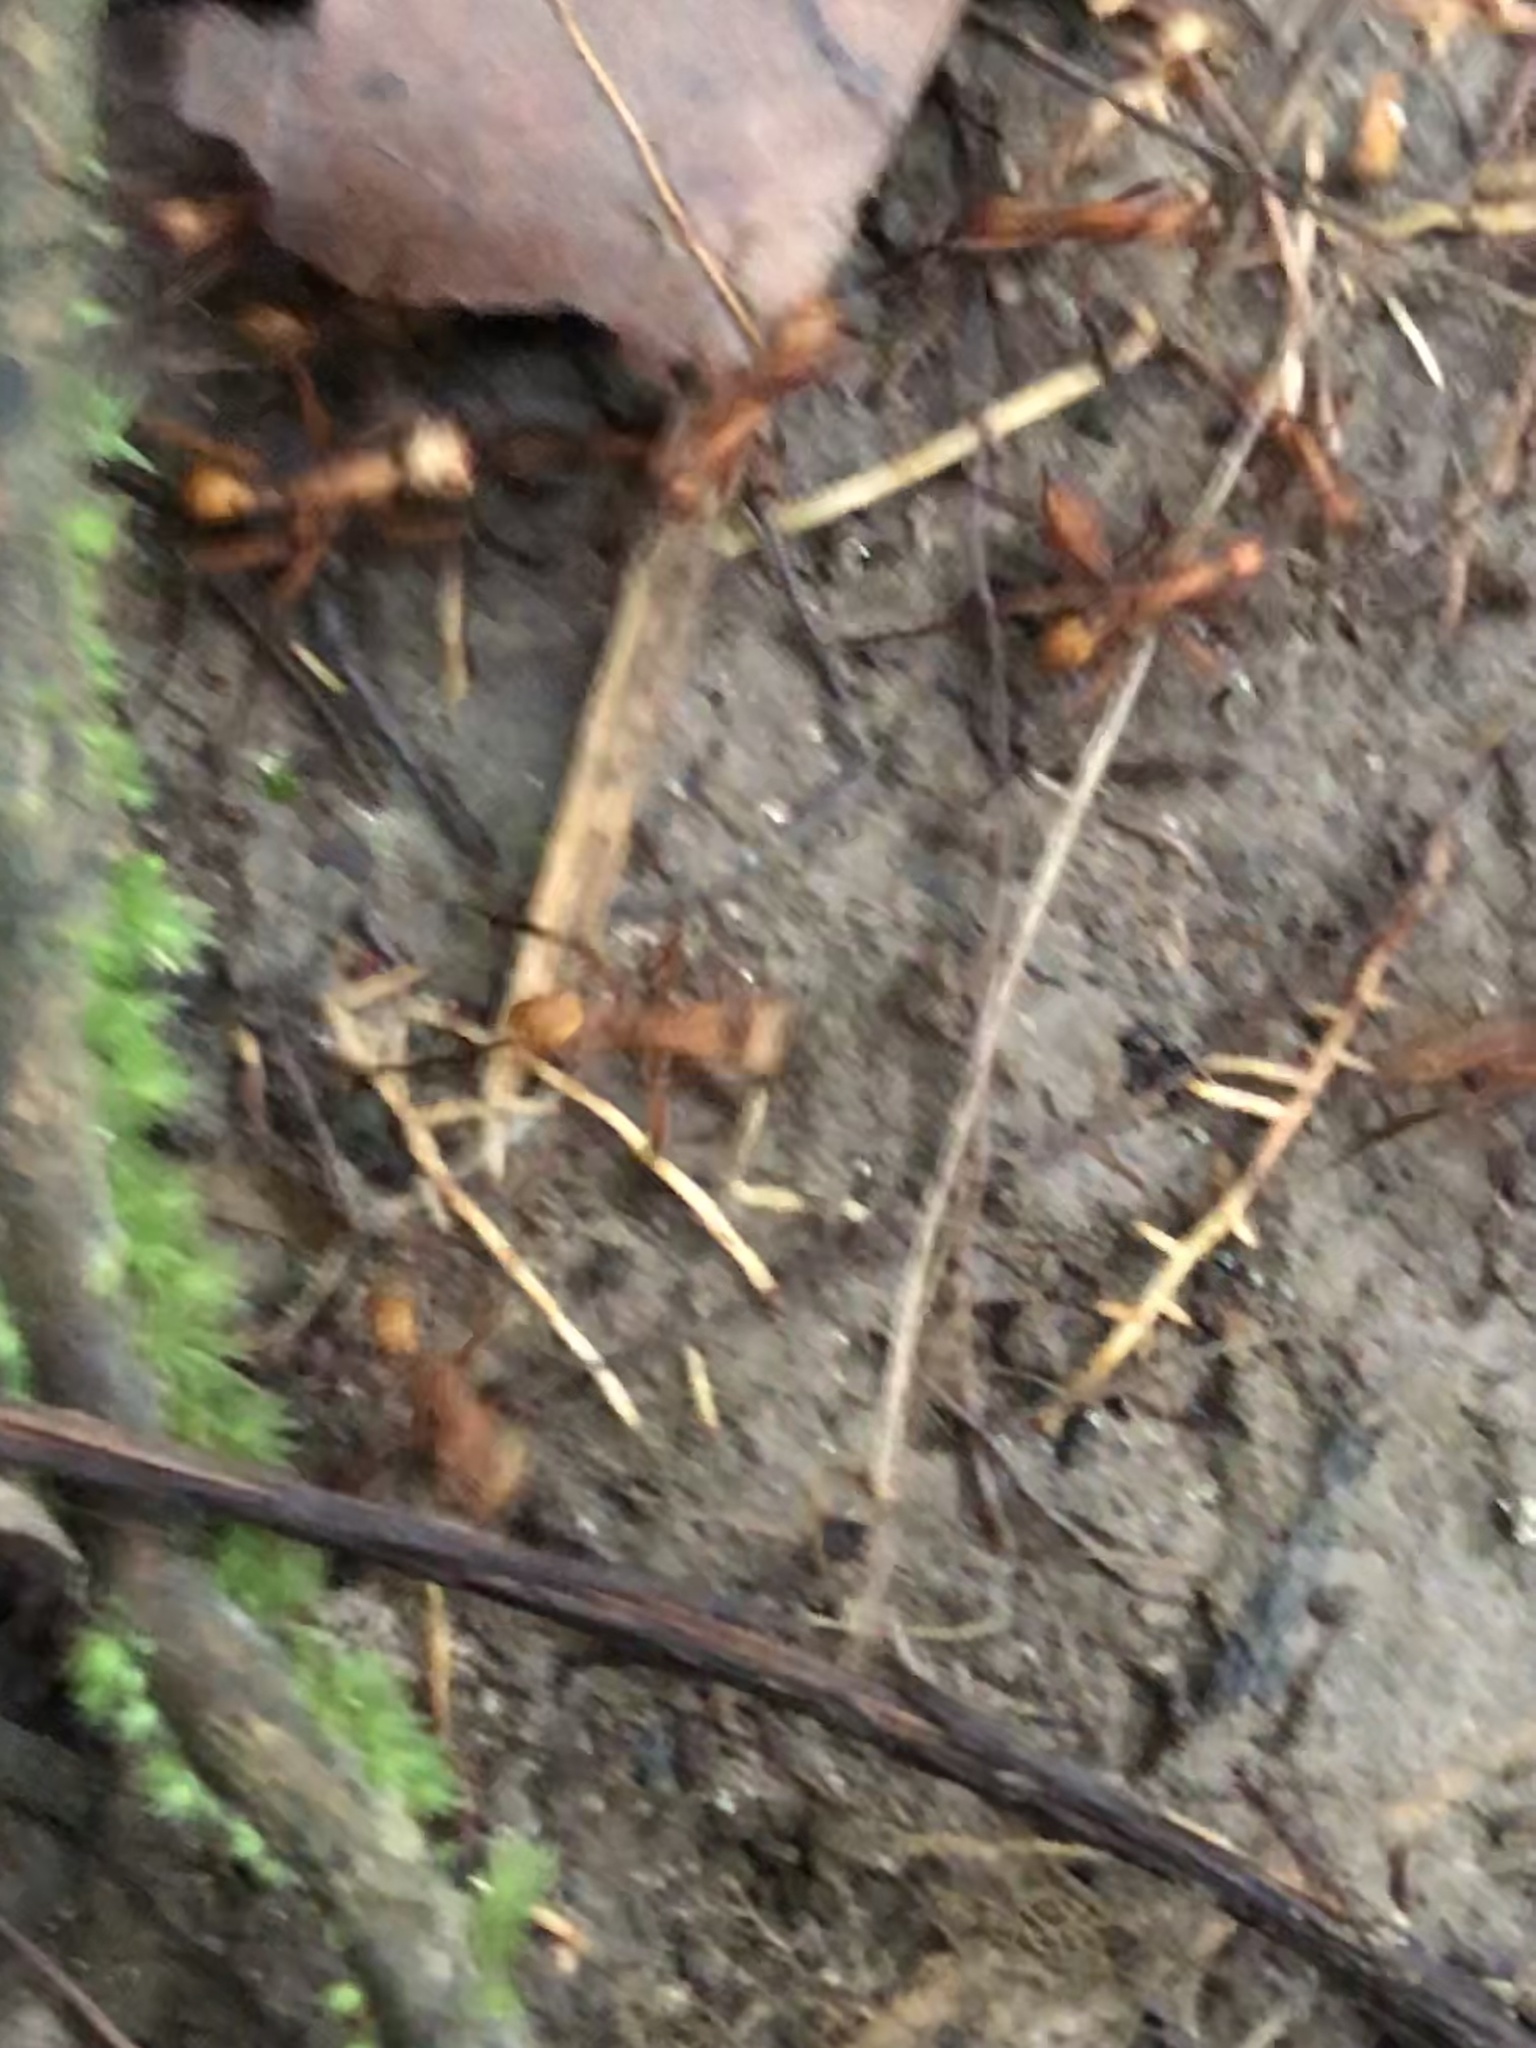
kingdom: Animalia
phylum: Arthropoda
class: Insecta
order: Hymenoptera
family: Formicidae
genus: Eciton
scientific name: Eciton
